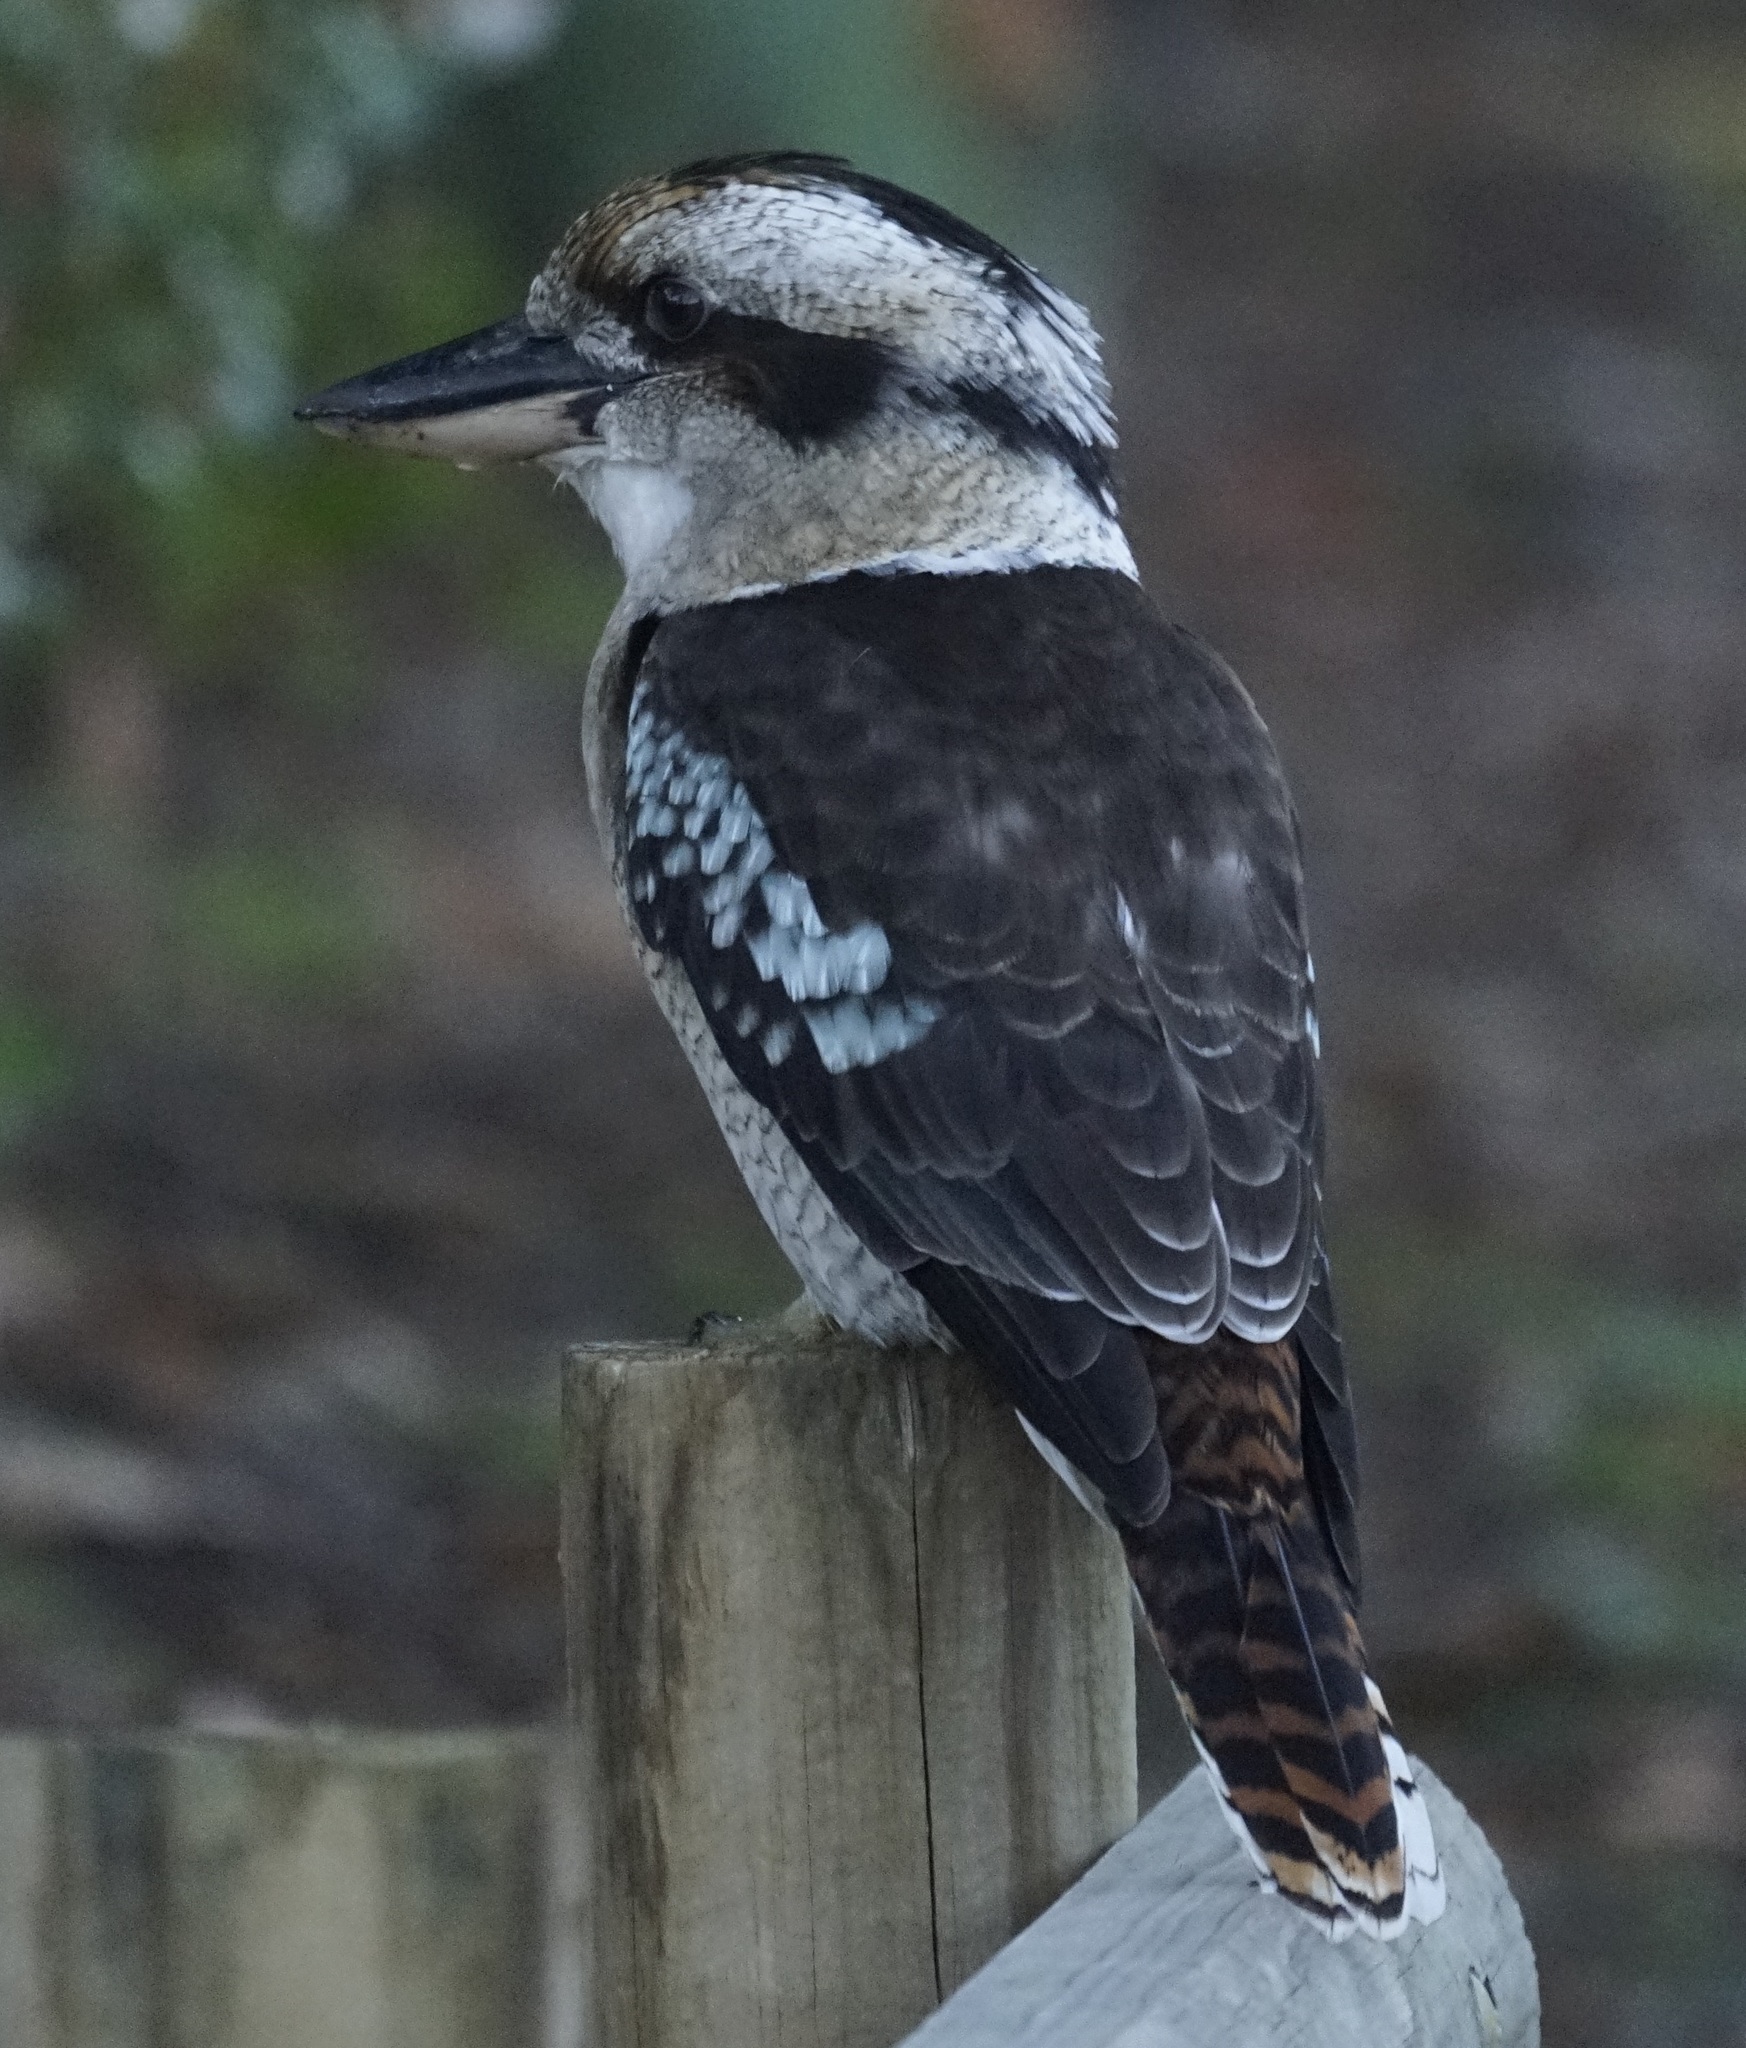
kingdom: Animalia
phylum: Chordata
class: Aves
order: Coraciiformes
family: Alcedinidae
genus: Dacelo
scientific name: Dacelo novaeguineae
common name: Laughing kookaburra
